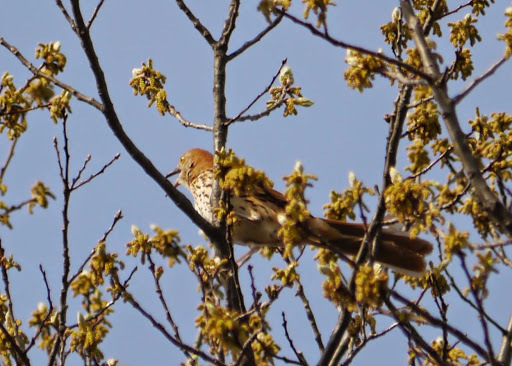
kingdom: Animalia
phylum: Chordata
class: Aves
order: Passeriformes
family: Mimidae
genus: Toxostoma
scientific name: Toxostoma rufum
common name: Brown thrasher
